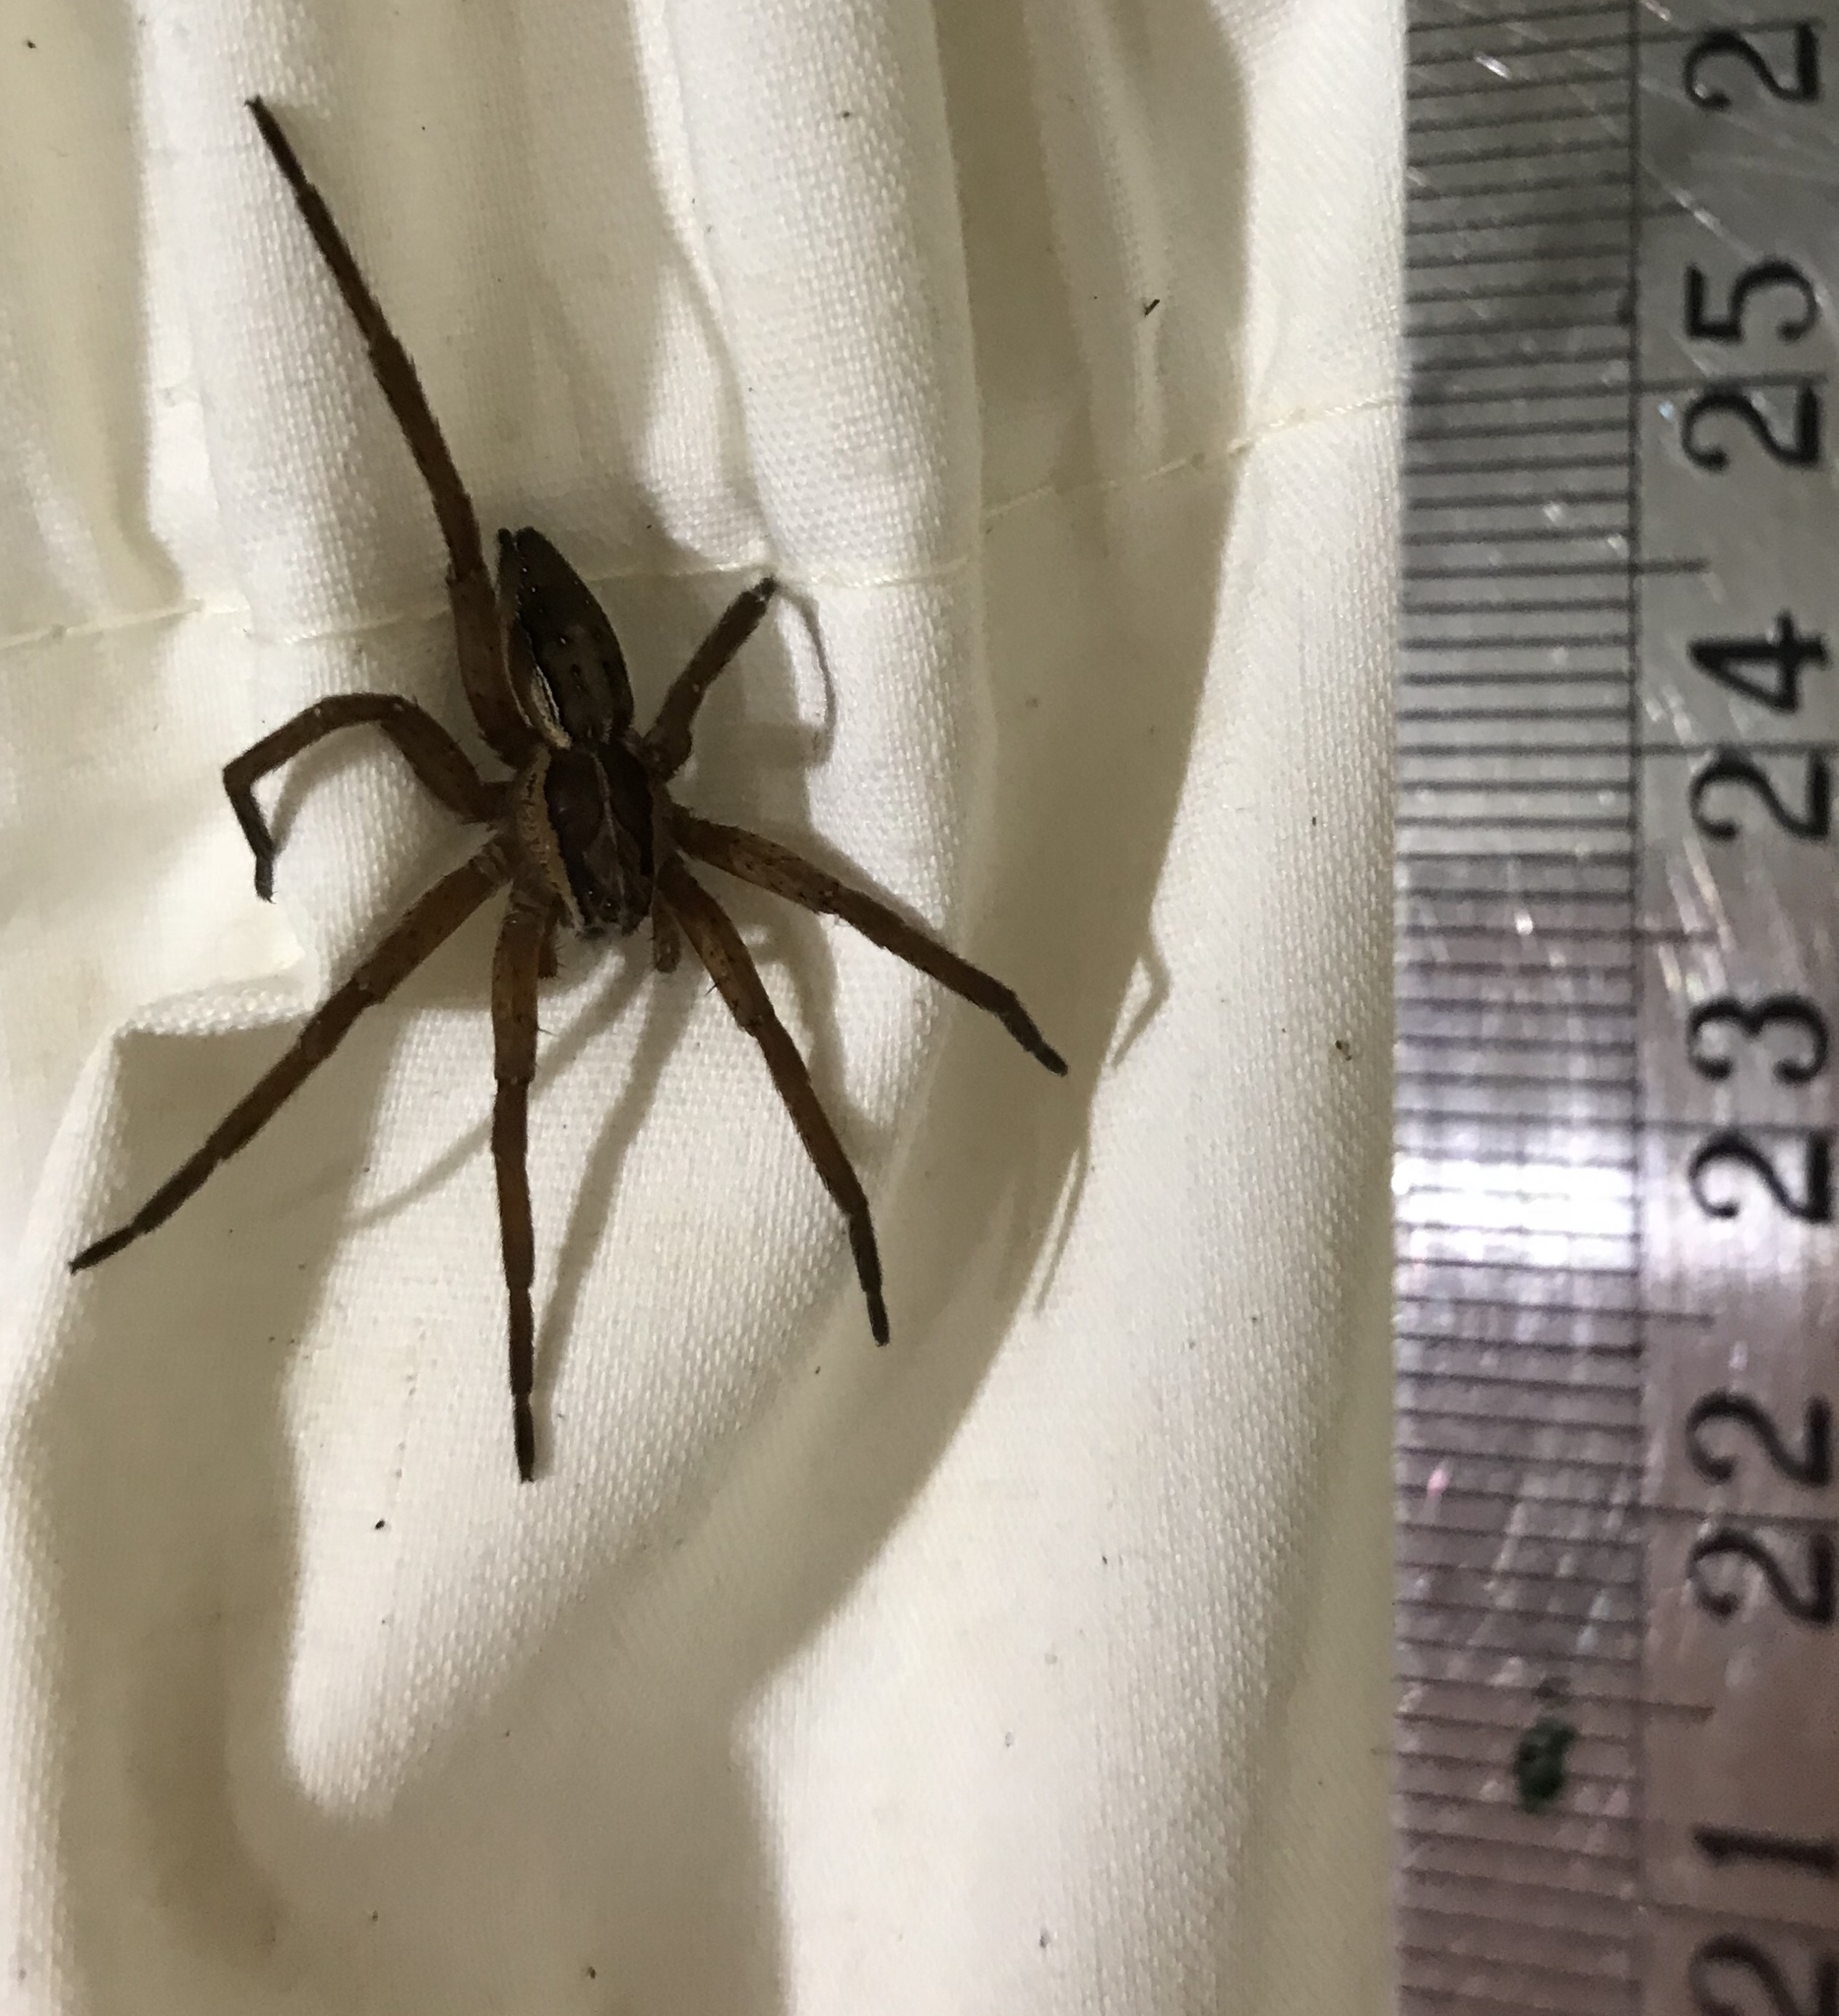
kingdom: Animalia
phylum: Arthropoda
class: Arachnida
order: Araneae
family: Pisauridae
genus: Dolomedes
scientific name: Dolomedes minor
